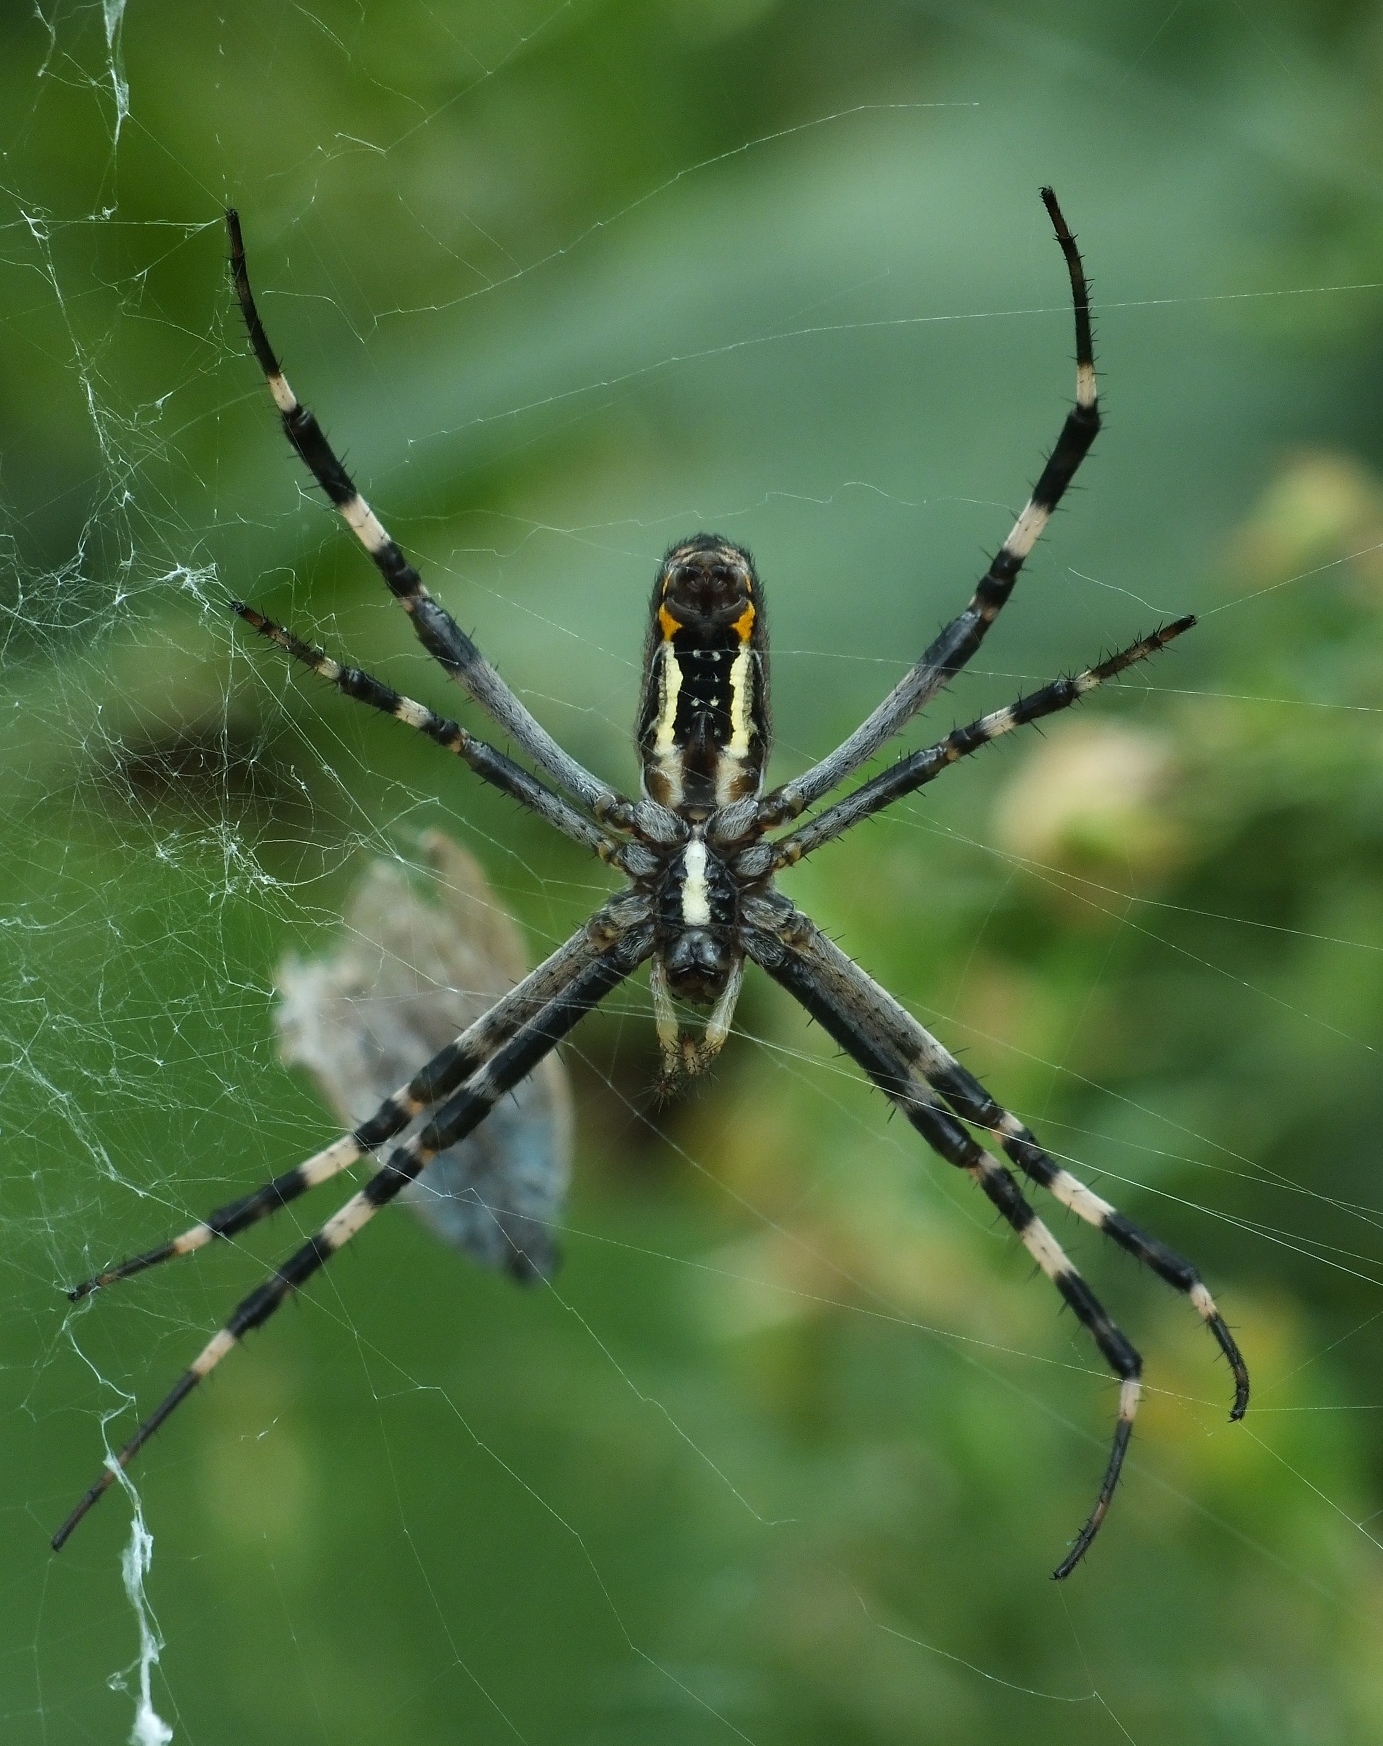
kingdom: Animalia
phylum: Arthropoda
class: Arachnida
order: Araneae
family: Araneidae
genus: Argiope
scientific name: Argiope bruennichi
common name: Wasp spider
